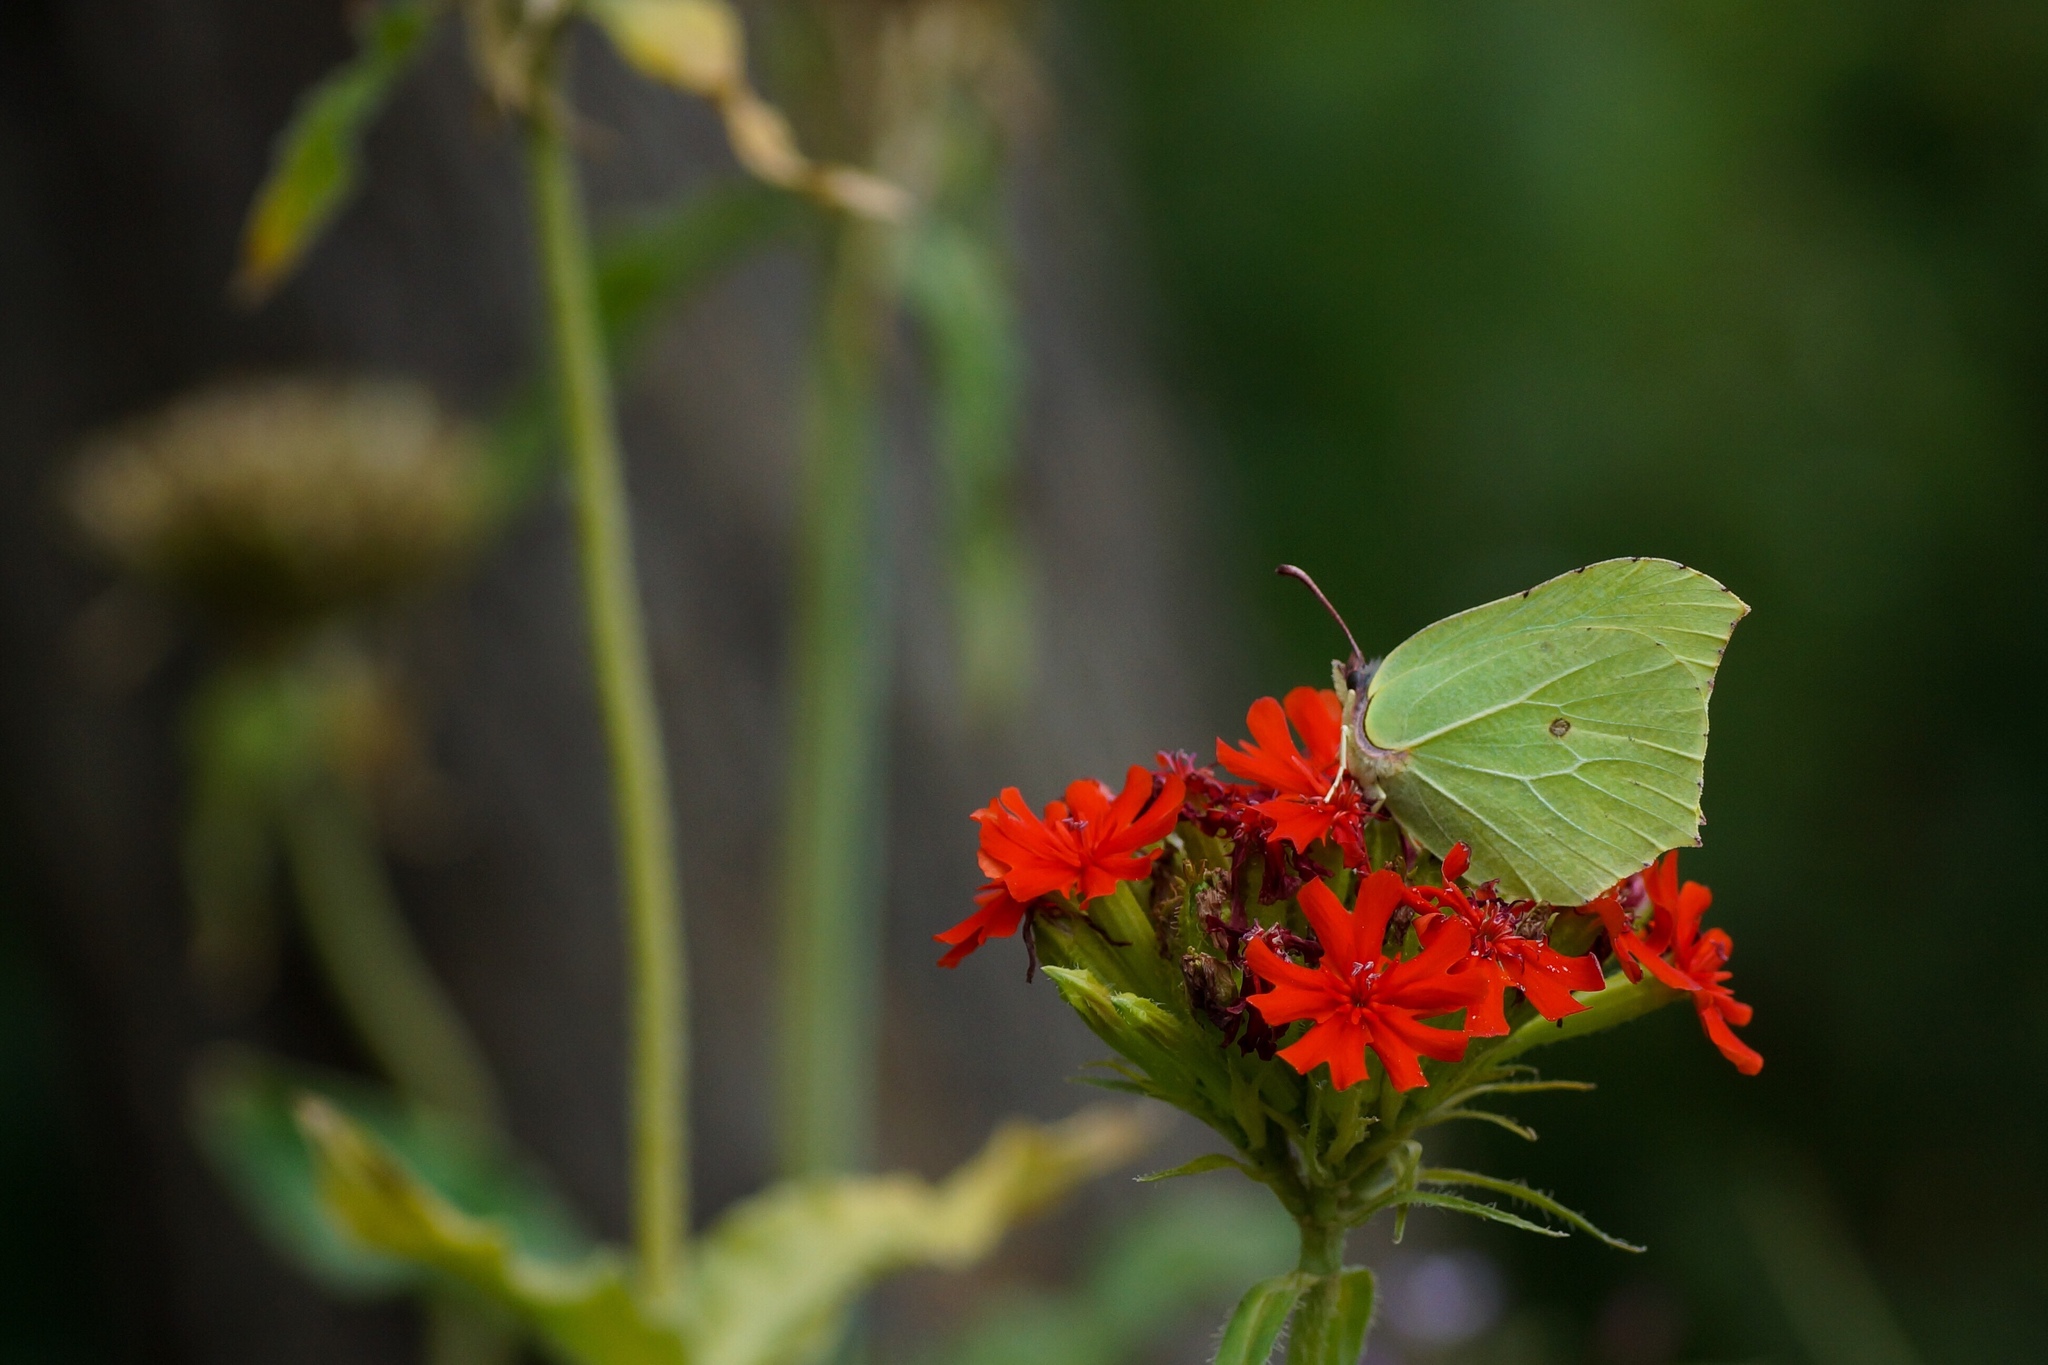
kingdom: Animalia
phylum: Arthropoda
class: Insecta
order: Lepidoptera
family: Pieridae
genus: Gonepteryx
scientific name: Gonepteryx rhamni
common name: Brimstone
